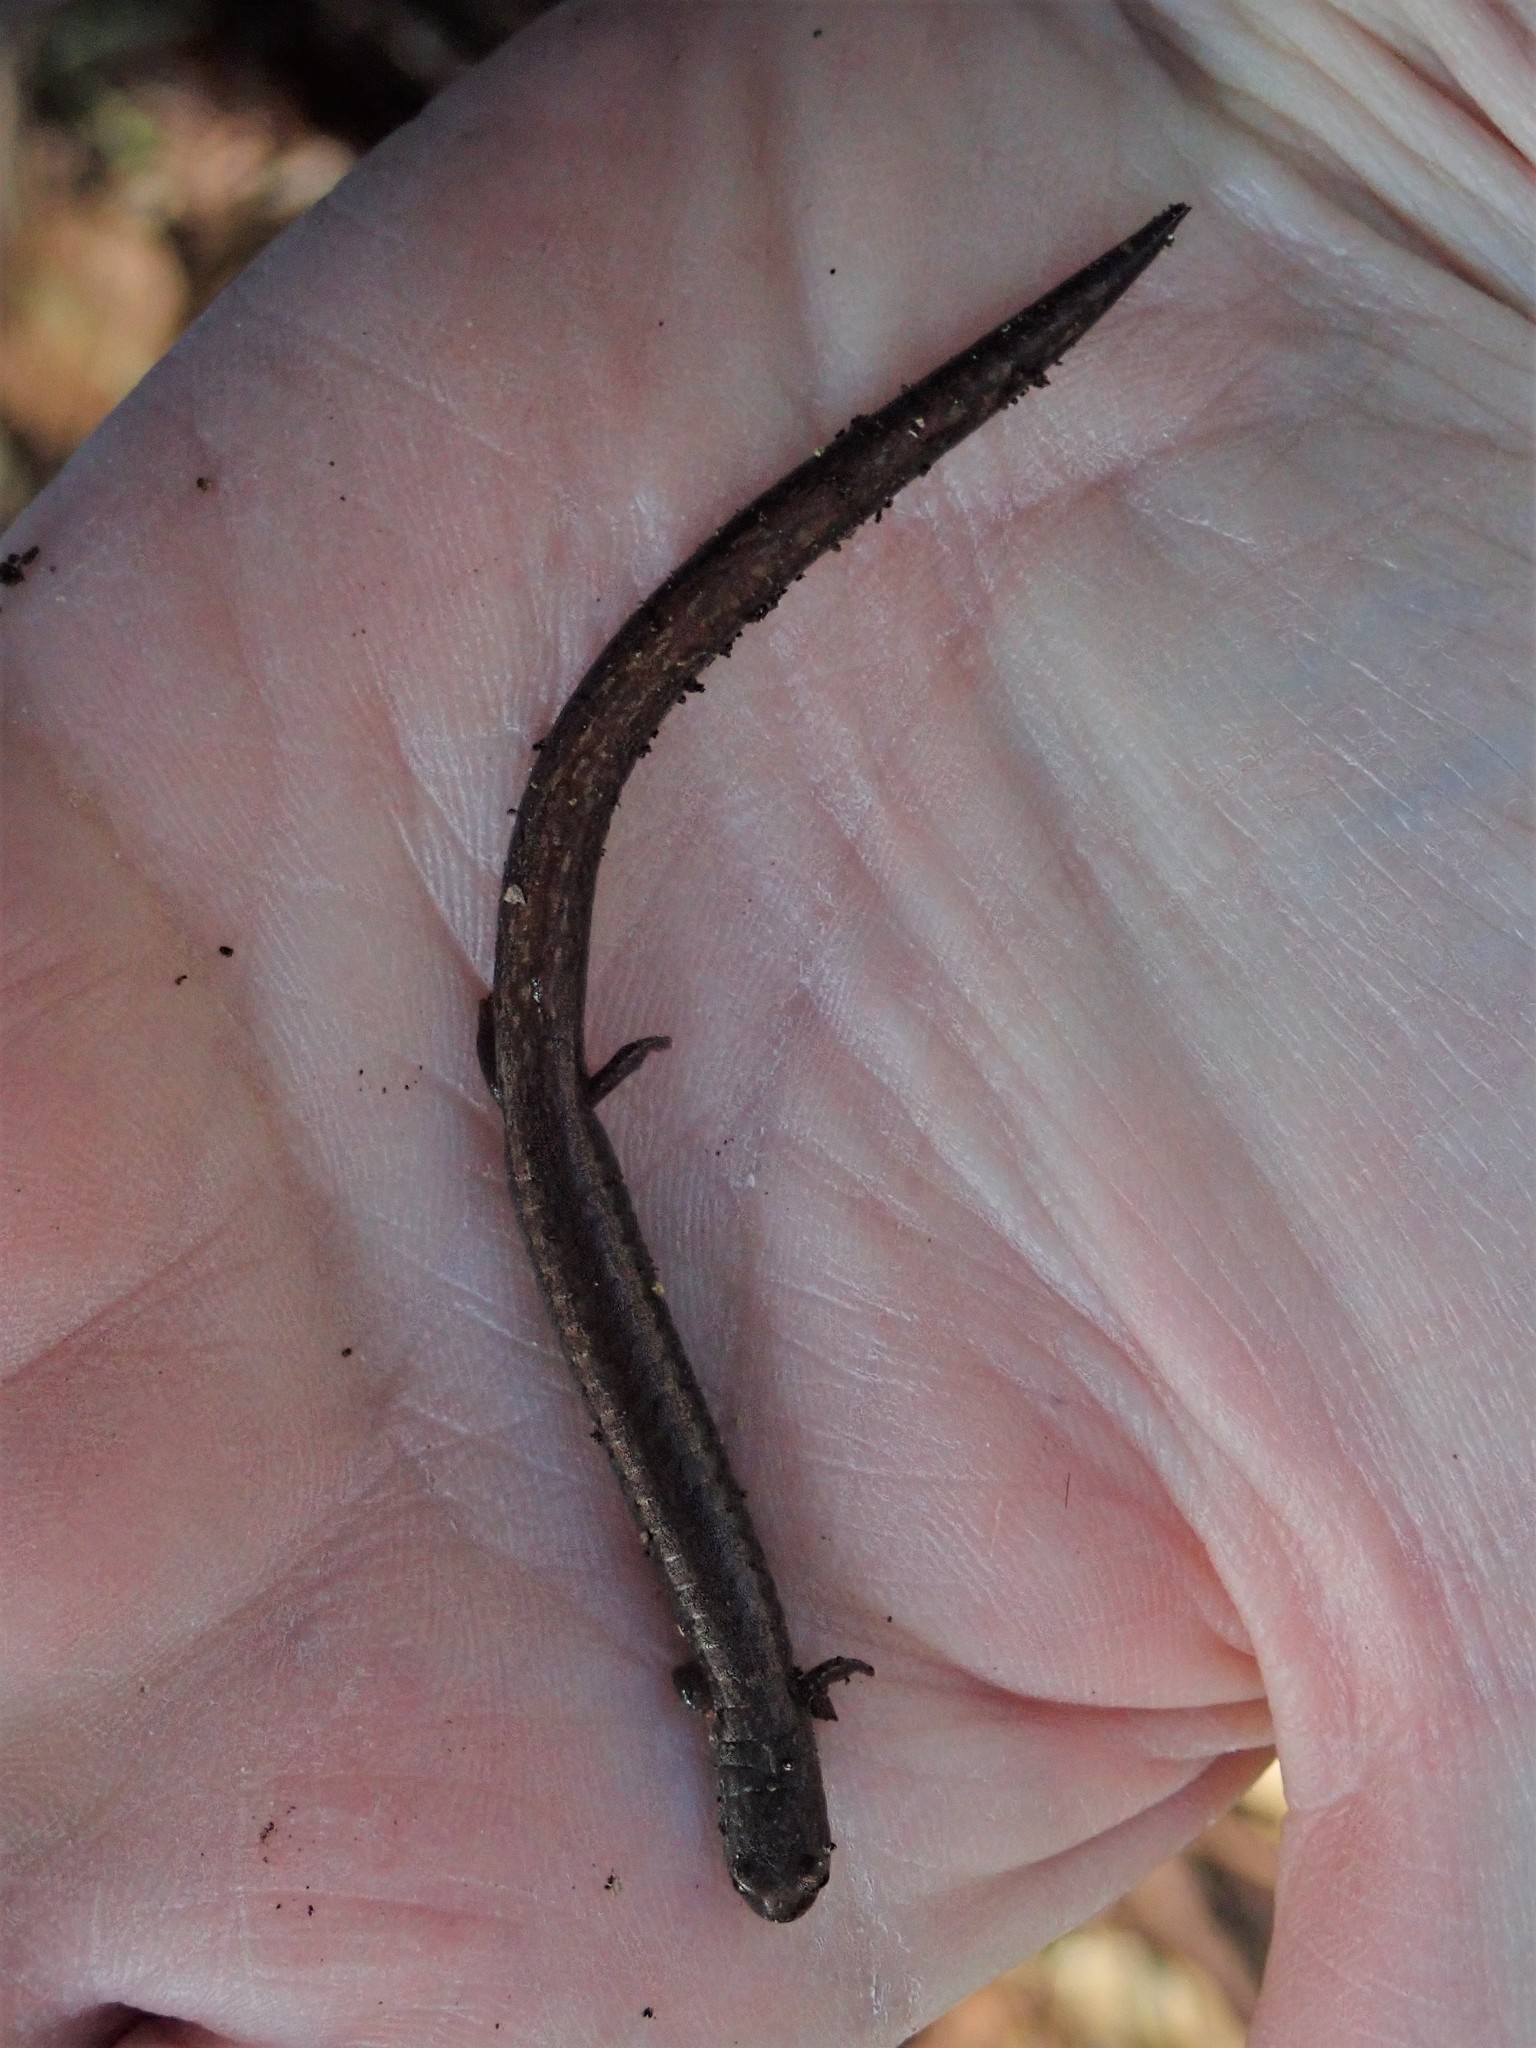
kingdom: Animalia
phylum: Chordata
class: Amphibia
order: Caudata
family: Plethodontidae
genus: Batrachoseps
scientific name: Batrachoseps attenuatus
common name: California slender salamander
